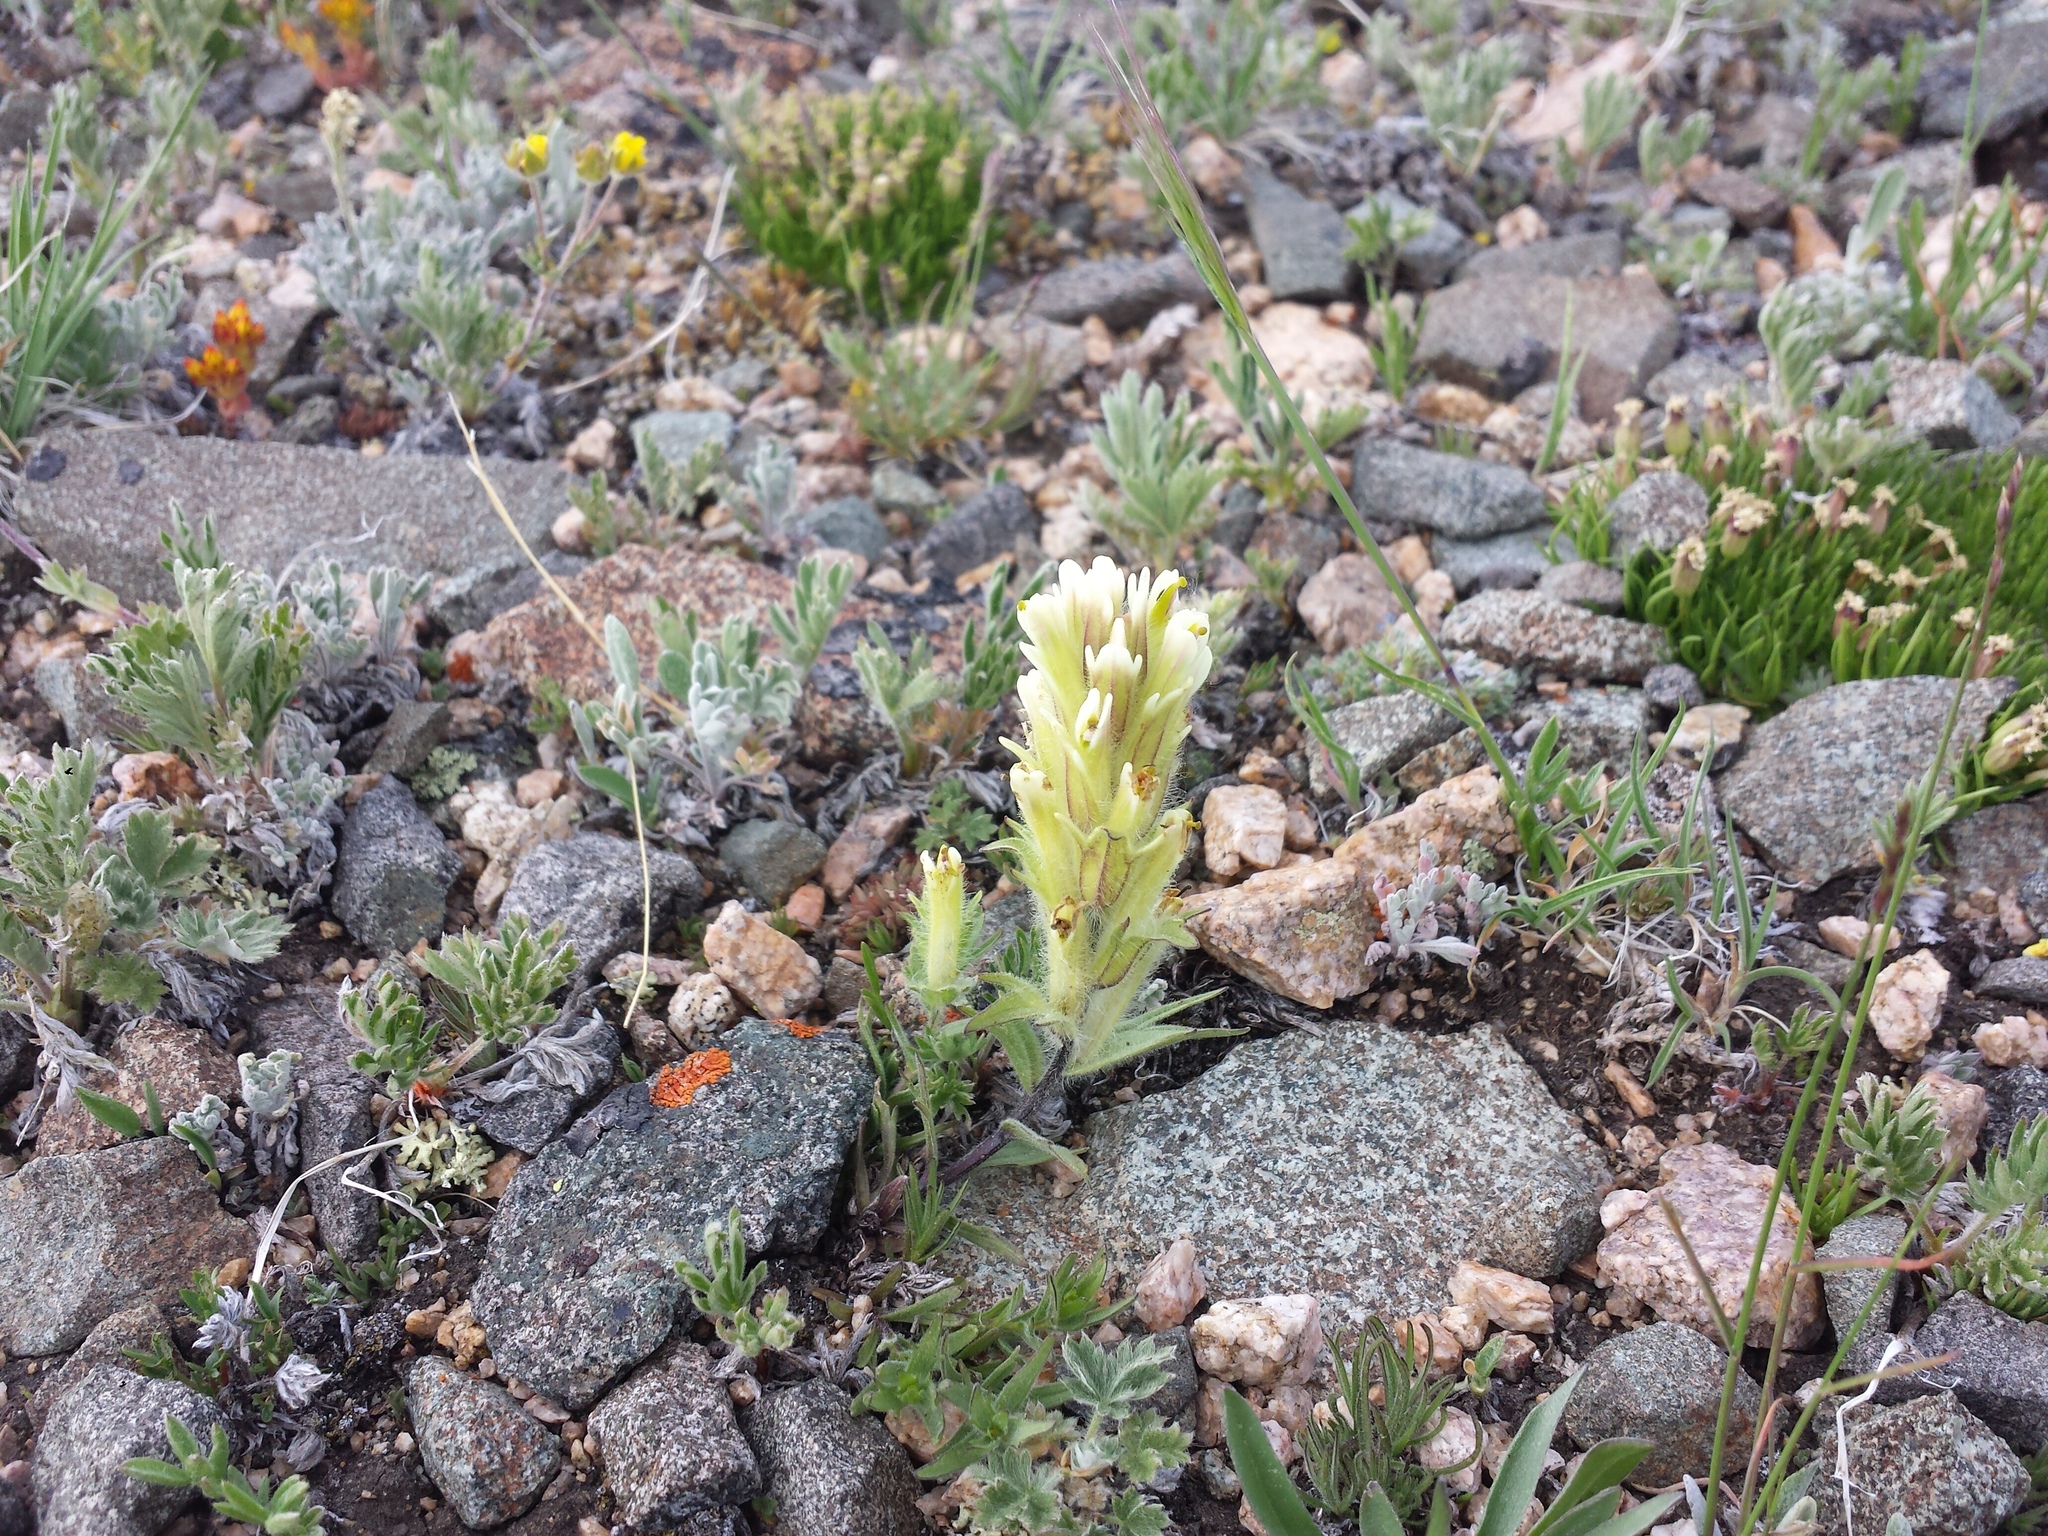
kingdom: Plantae
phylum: Tracheophyta
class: Magnoliopsida
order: Lamiales
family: Orobanchaceae
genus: Castilleja
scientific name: Castilleja pulchella
